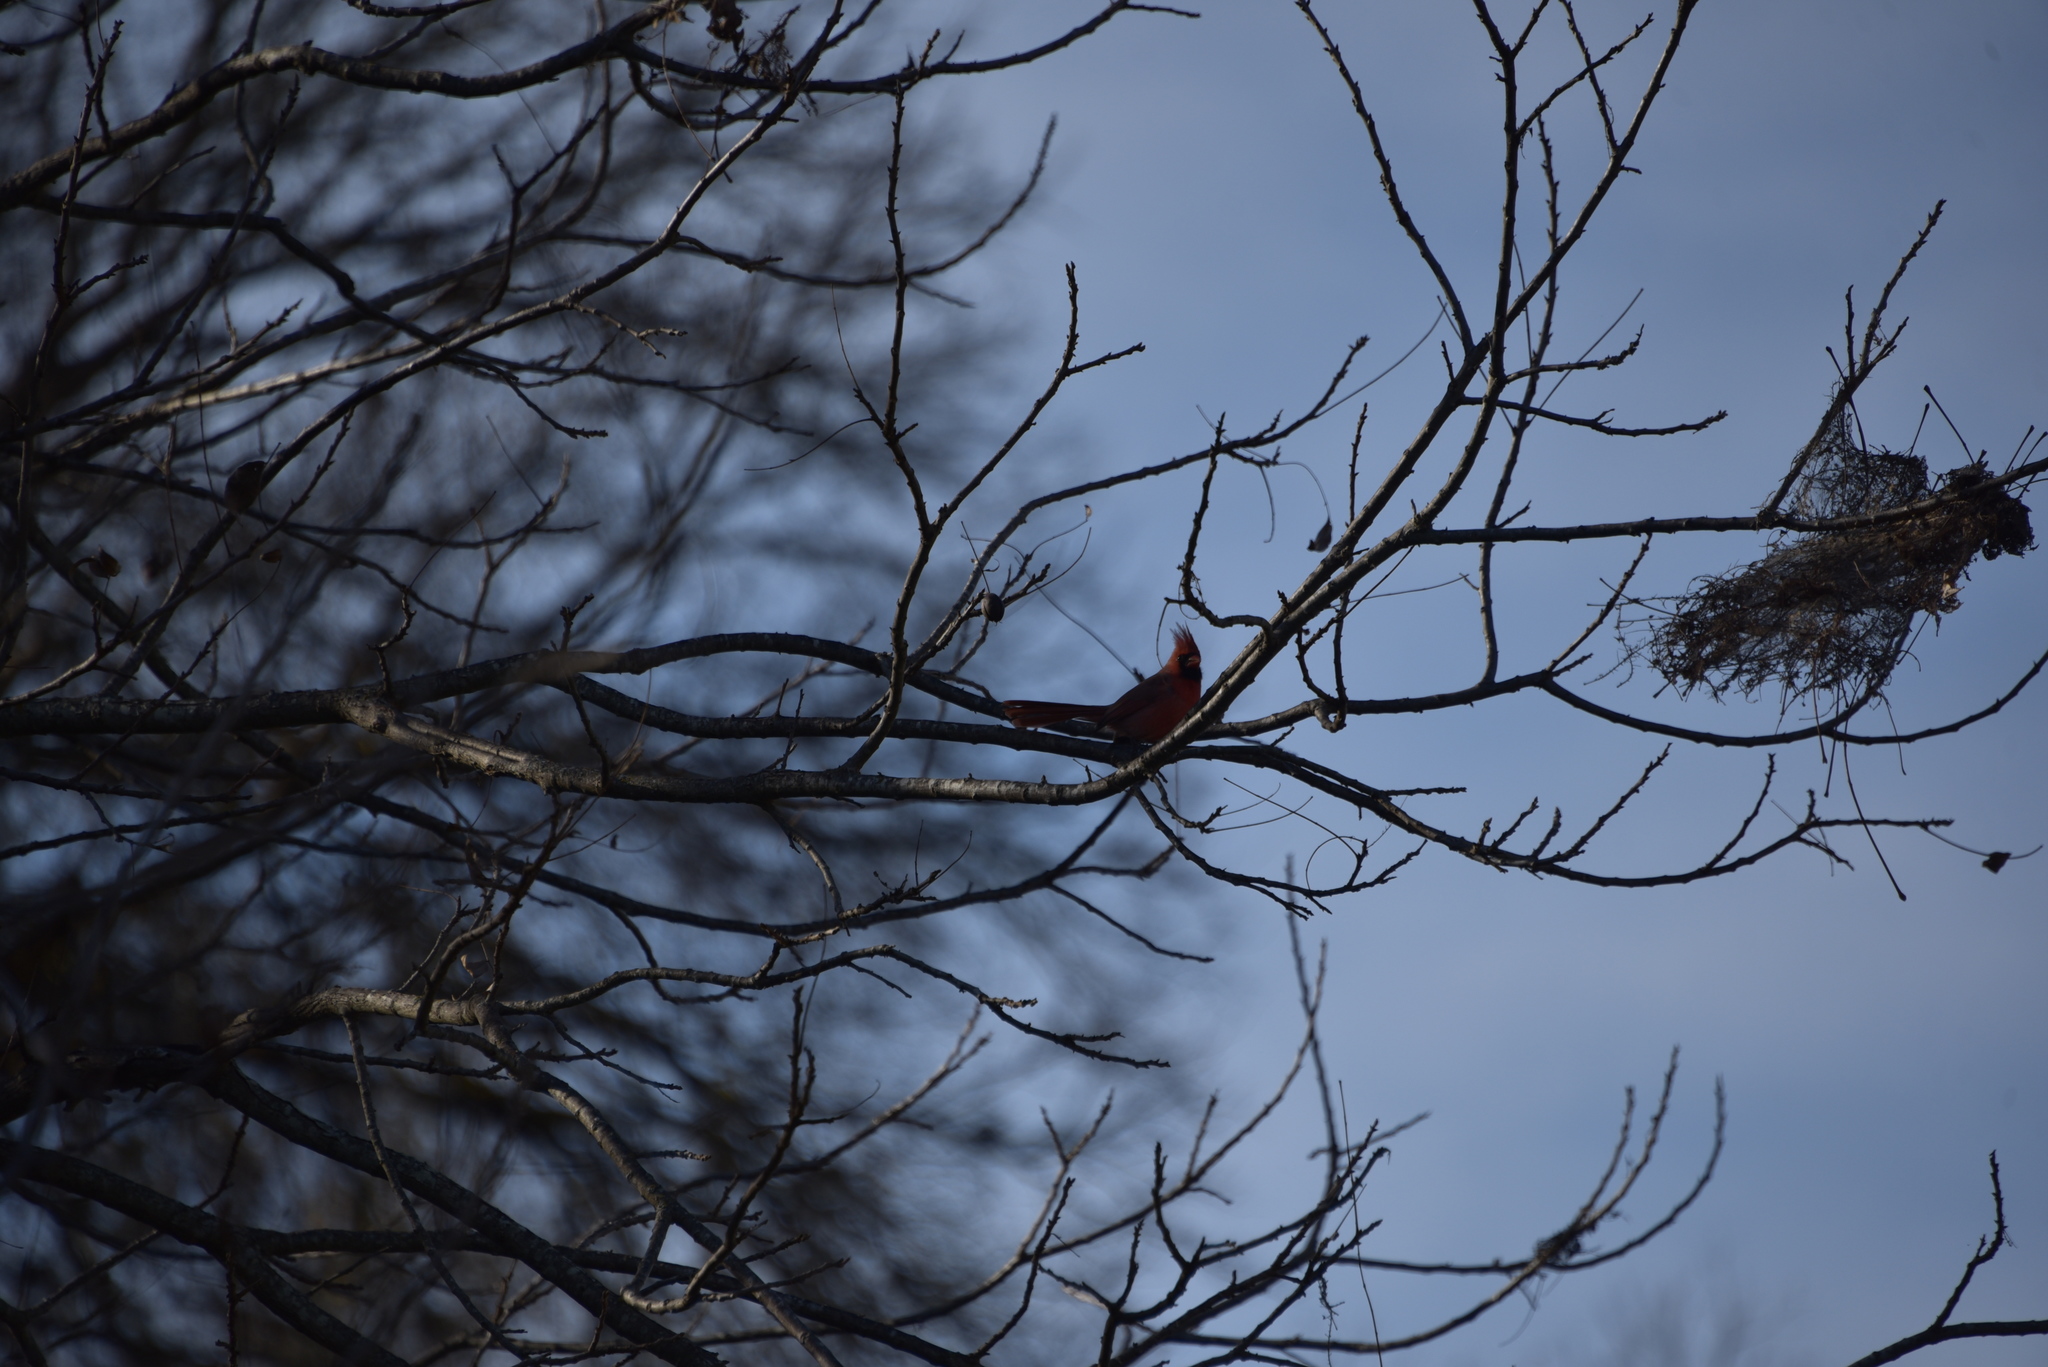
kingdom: Animalia
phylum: Chordata
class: Aves
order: Passeriformes
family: Cardinalidae
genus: Cardinalis
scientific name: Cardinalis cardinalis
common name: Northern cardinal
